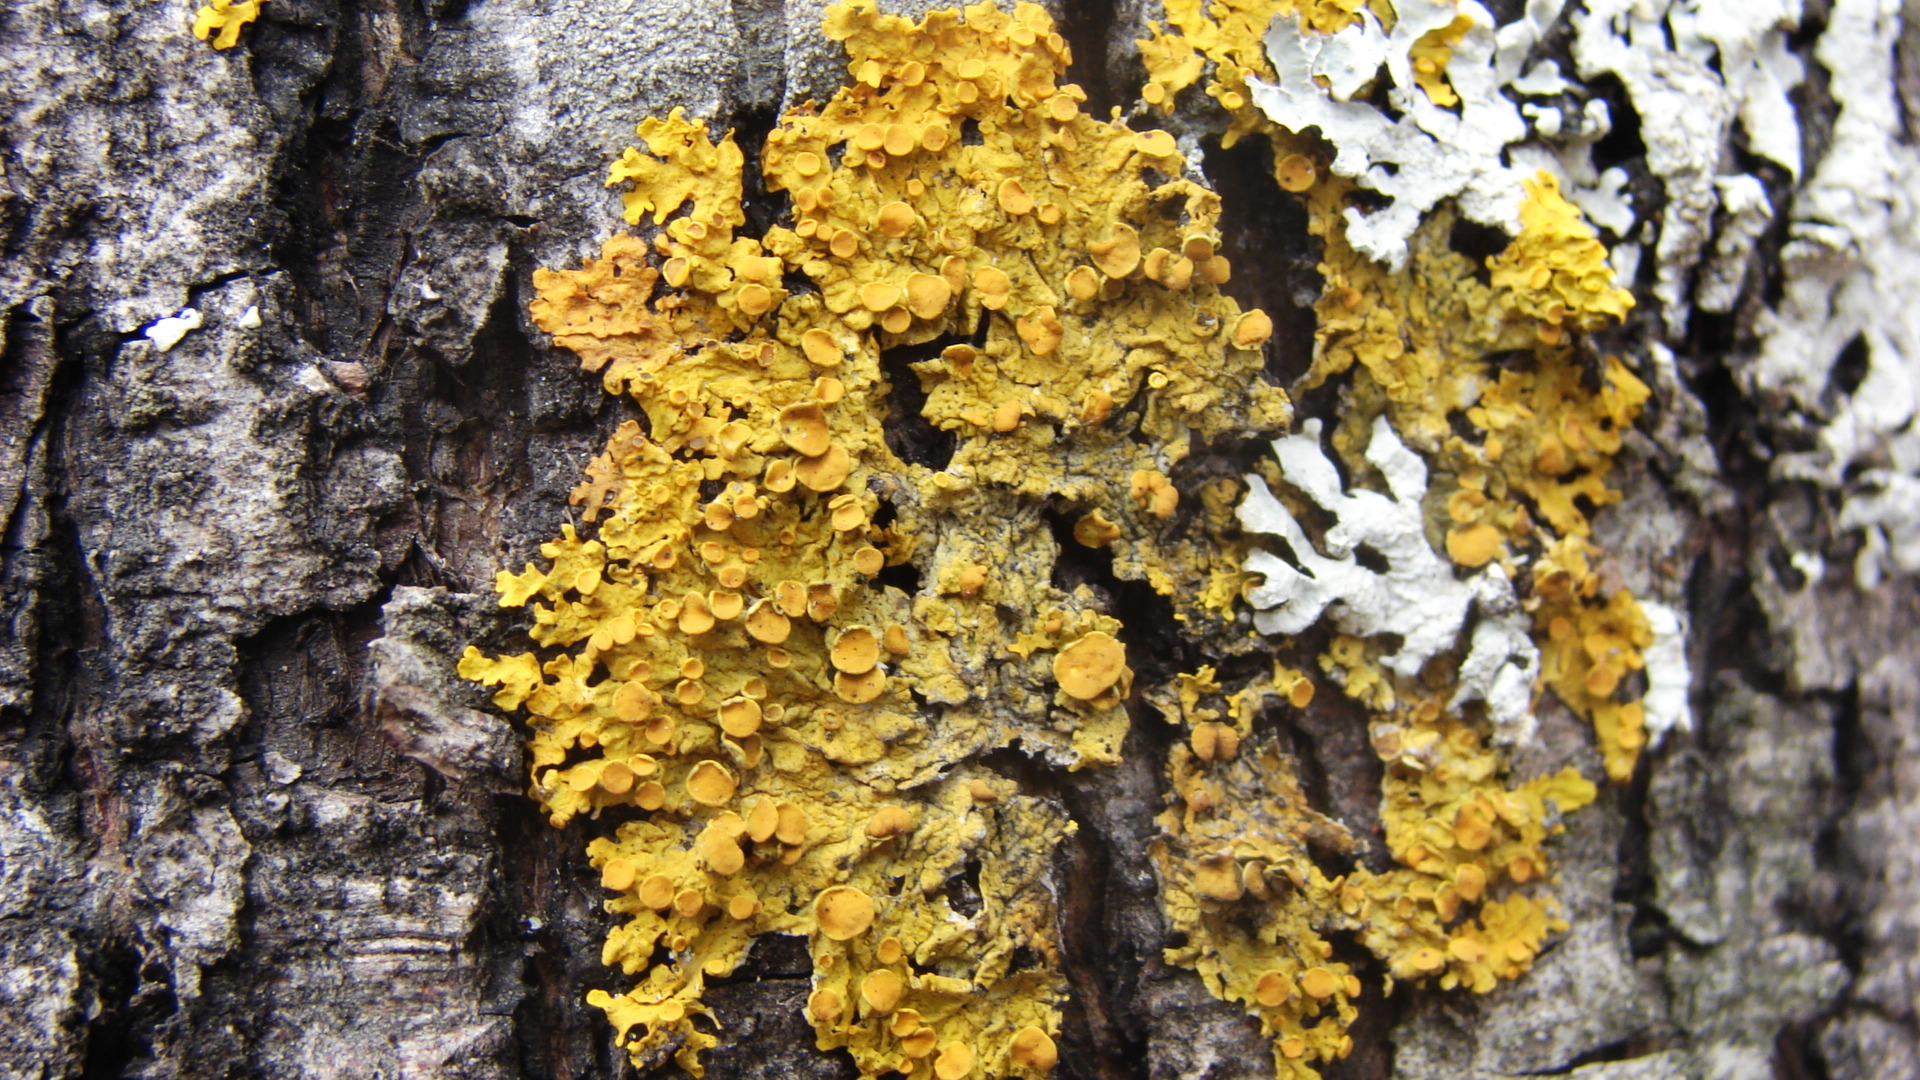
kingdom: Fungi
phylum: Ascomycota
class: Lecanoromycetes
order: Teloschistales
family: Teloschistaceae
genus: Xanthoria
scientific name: Xanthoria parietina
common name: Common orange lichen
